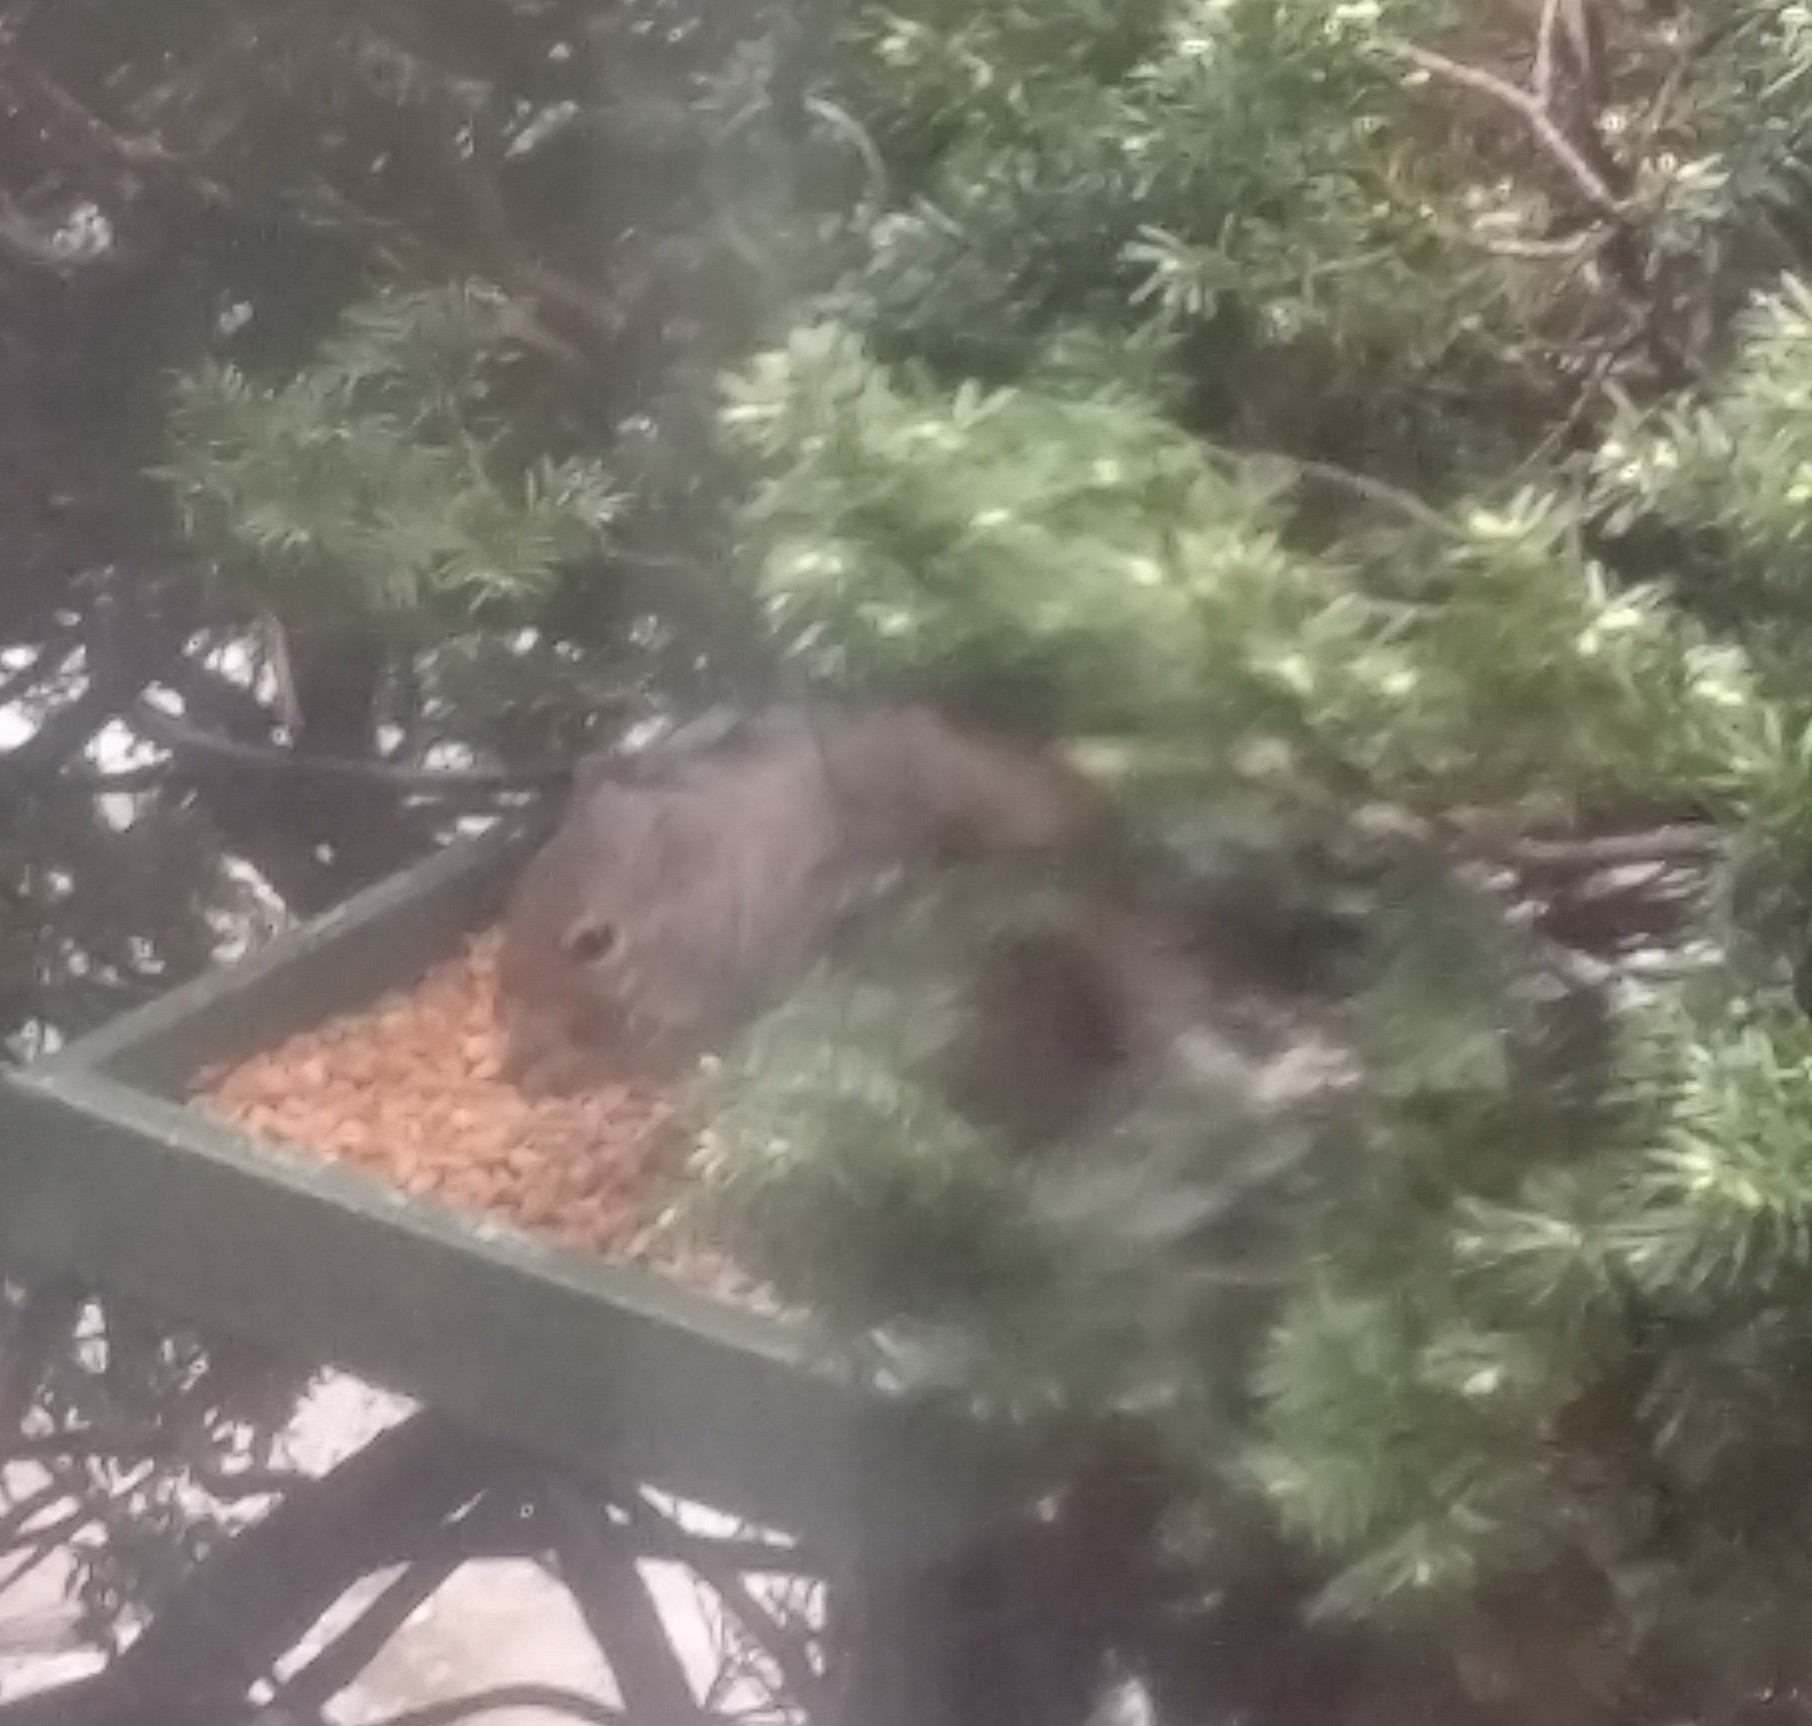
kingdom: Animalia
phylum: Chordata
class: Mammalia
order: Rodentia
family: Sciuridae
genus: Sciurus
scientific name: Sciurus carolinensis
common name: Eastern gray squirrel
